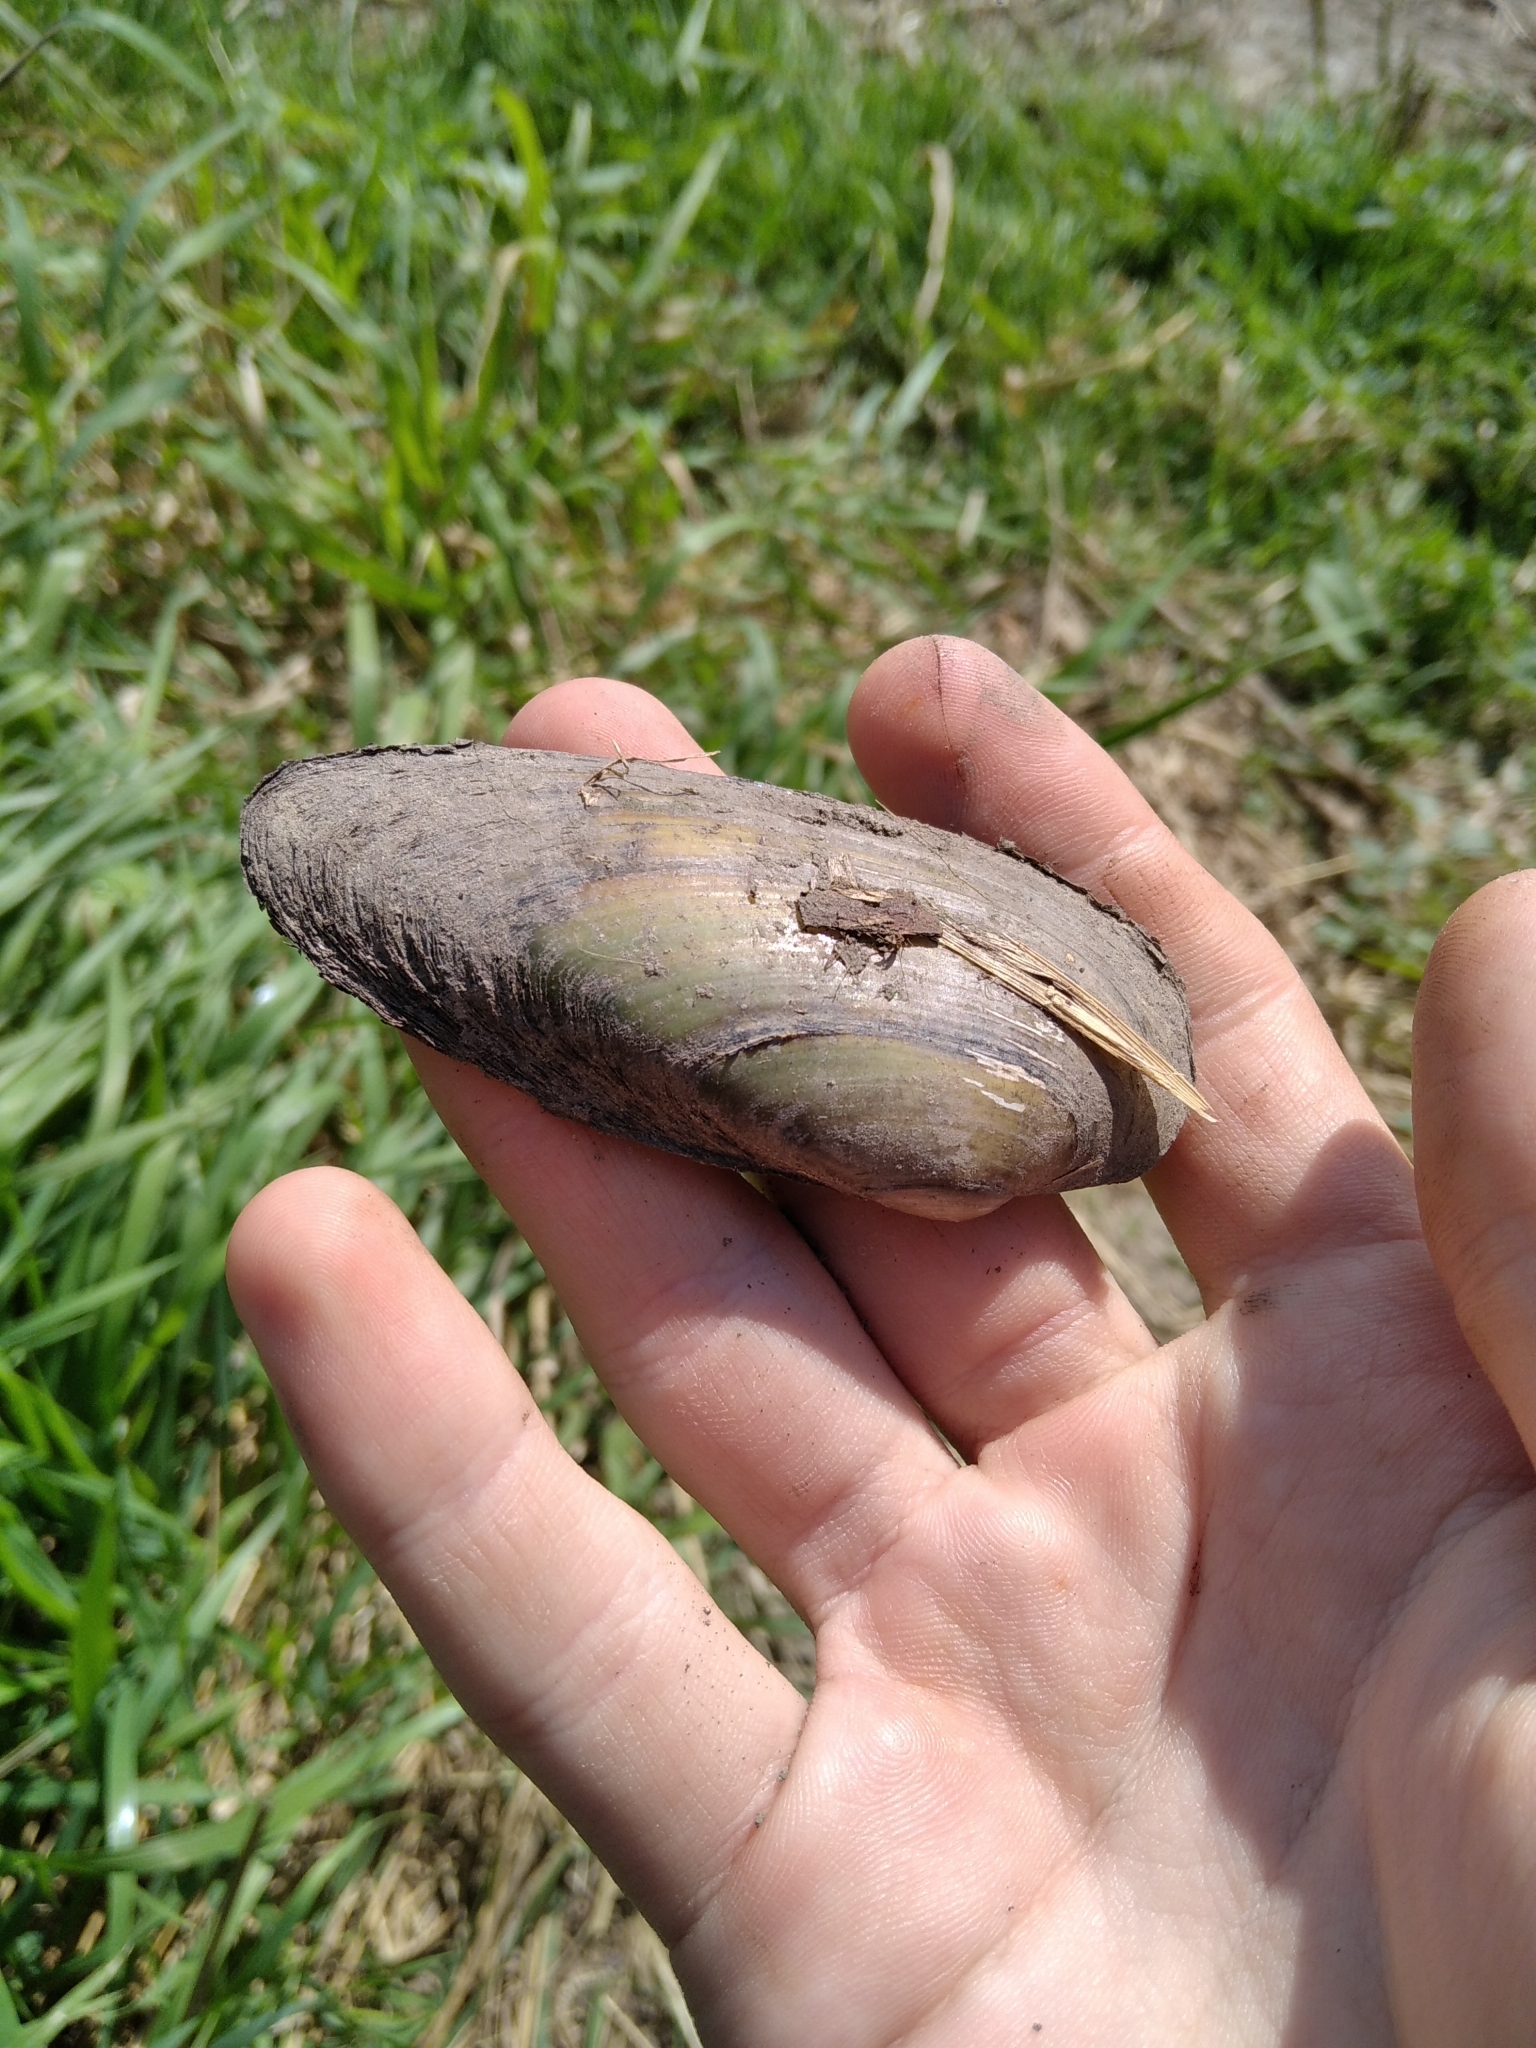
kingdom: Animalia
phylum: Mollusca
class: Bivalvia
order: Unionida
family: Unionidae
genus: Unio
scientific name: Unio tumidus
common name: Swollen river mussel
